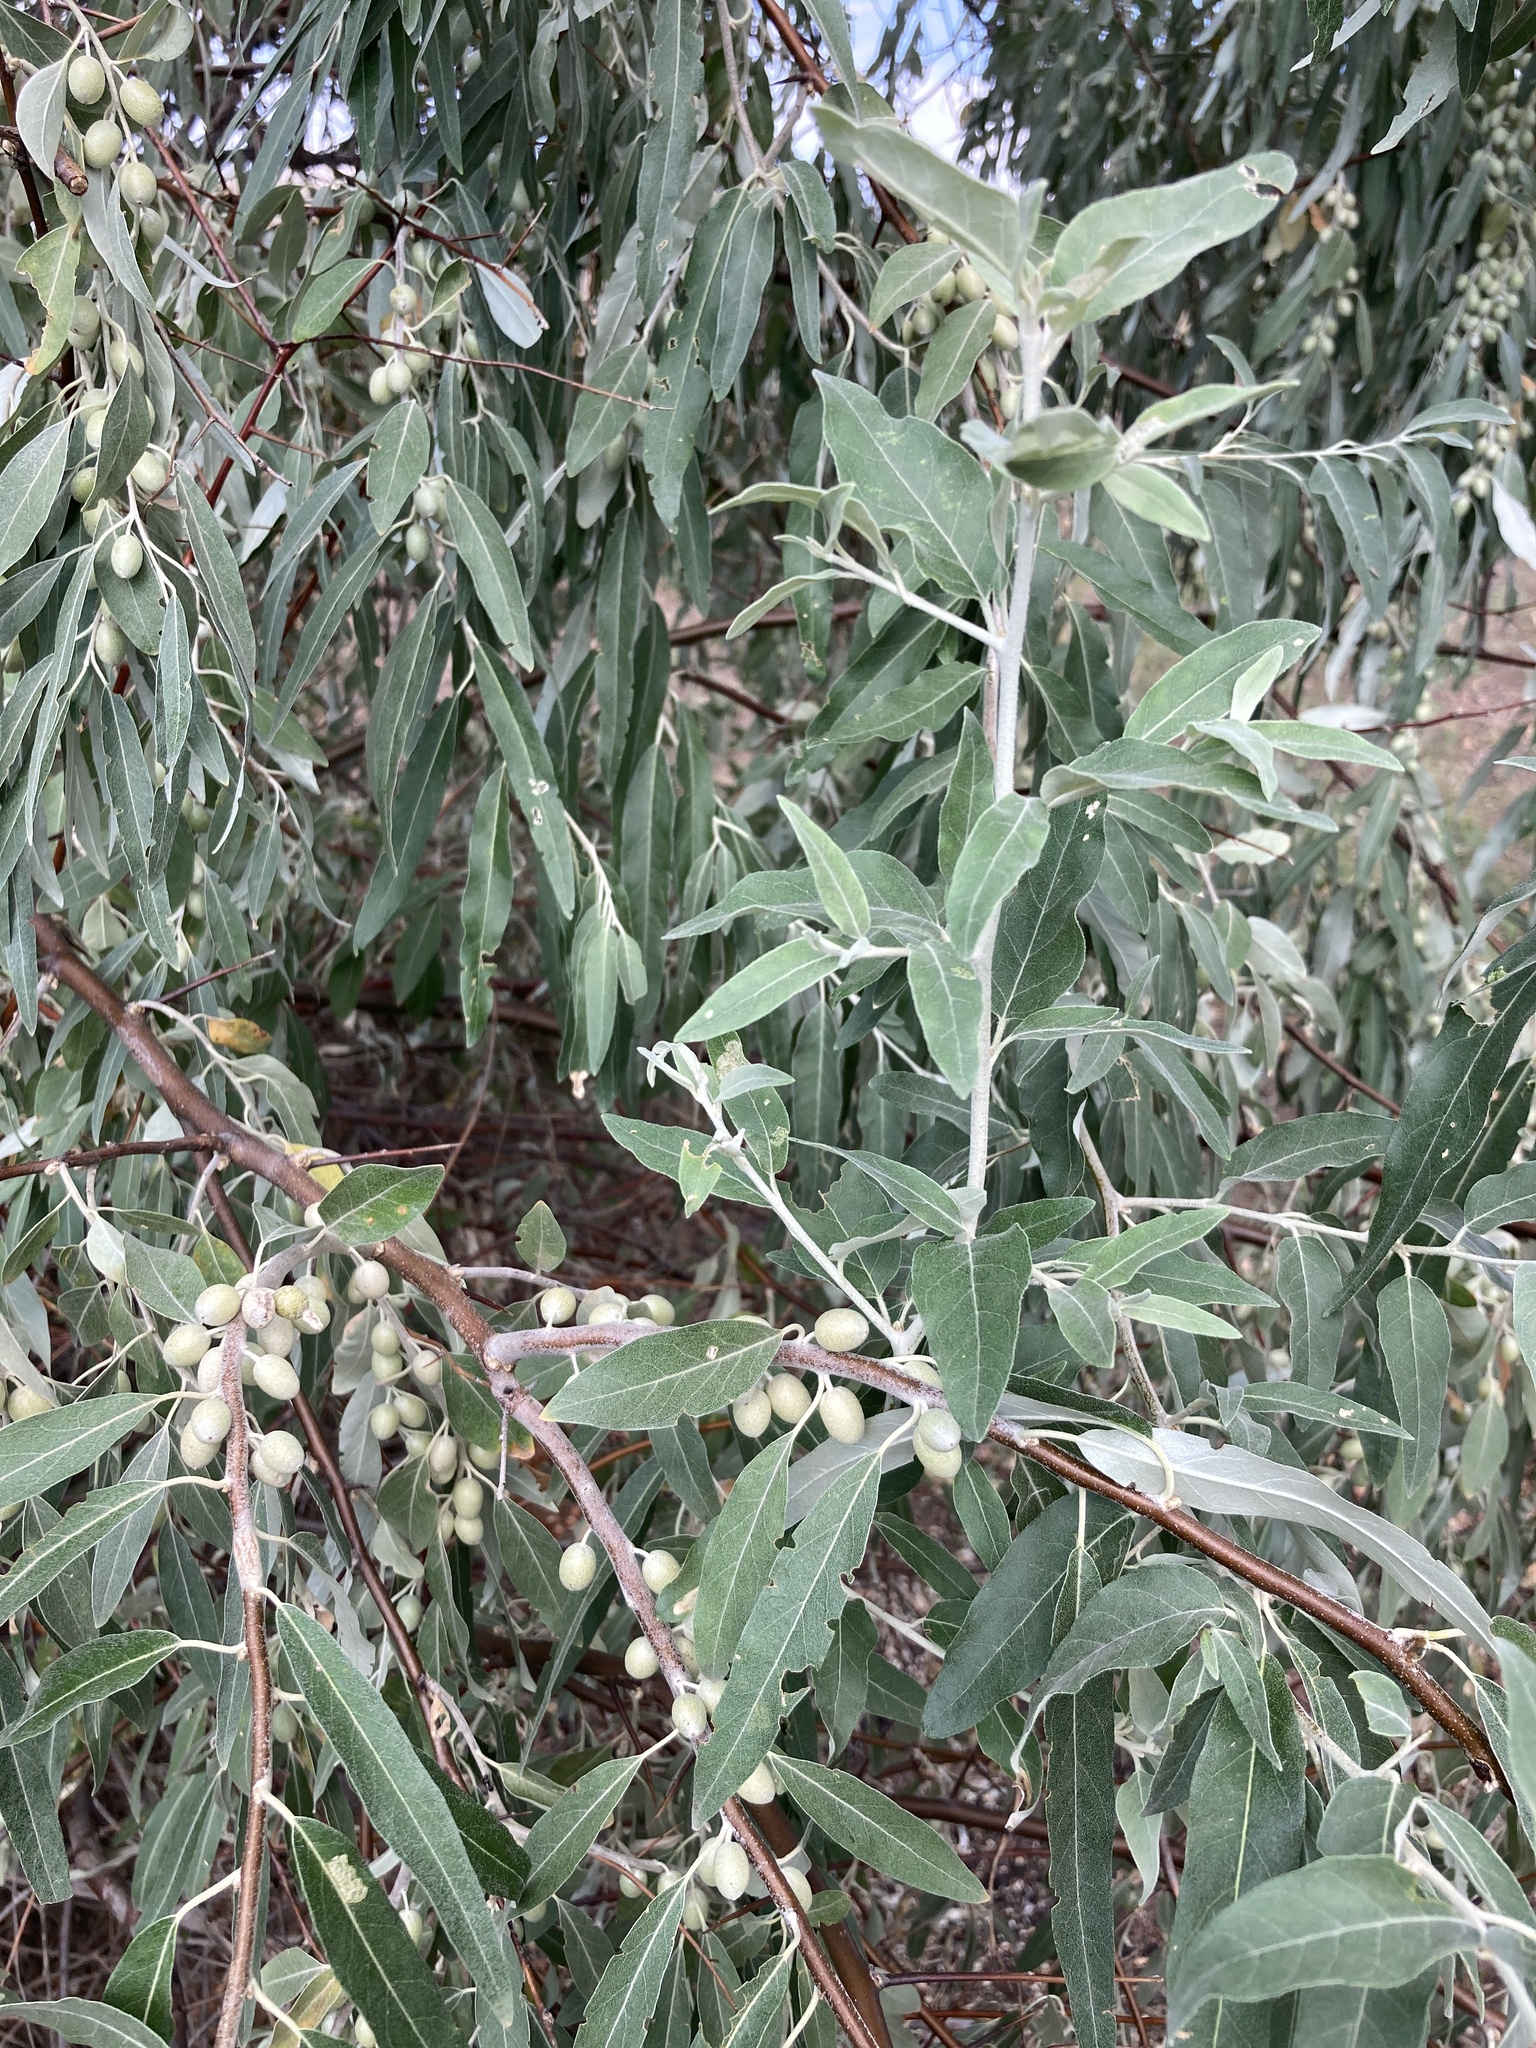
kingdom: Plantae
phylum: Tracheophyta
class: Magnoliopsida
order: Rosales
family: Elaeagnaceae
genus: Elaeagnus
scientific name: Elaeagnus angustifolia
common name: Russian olive
